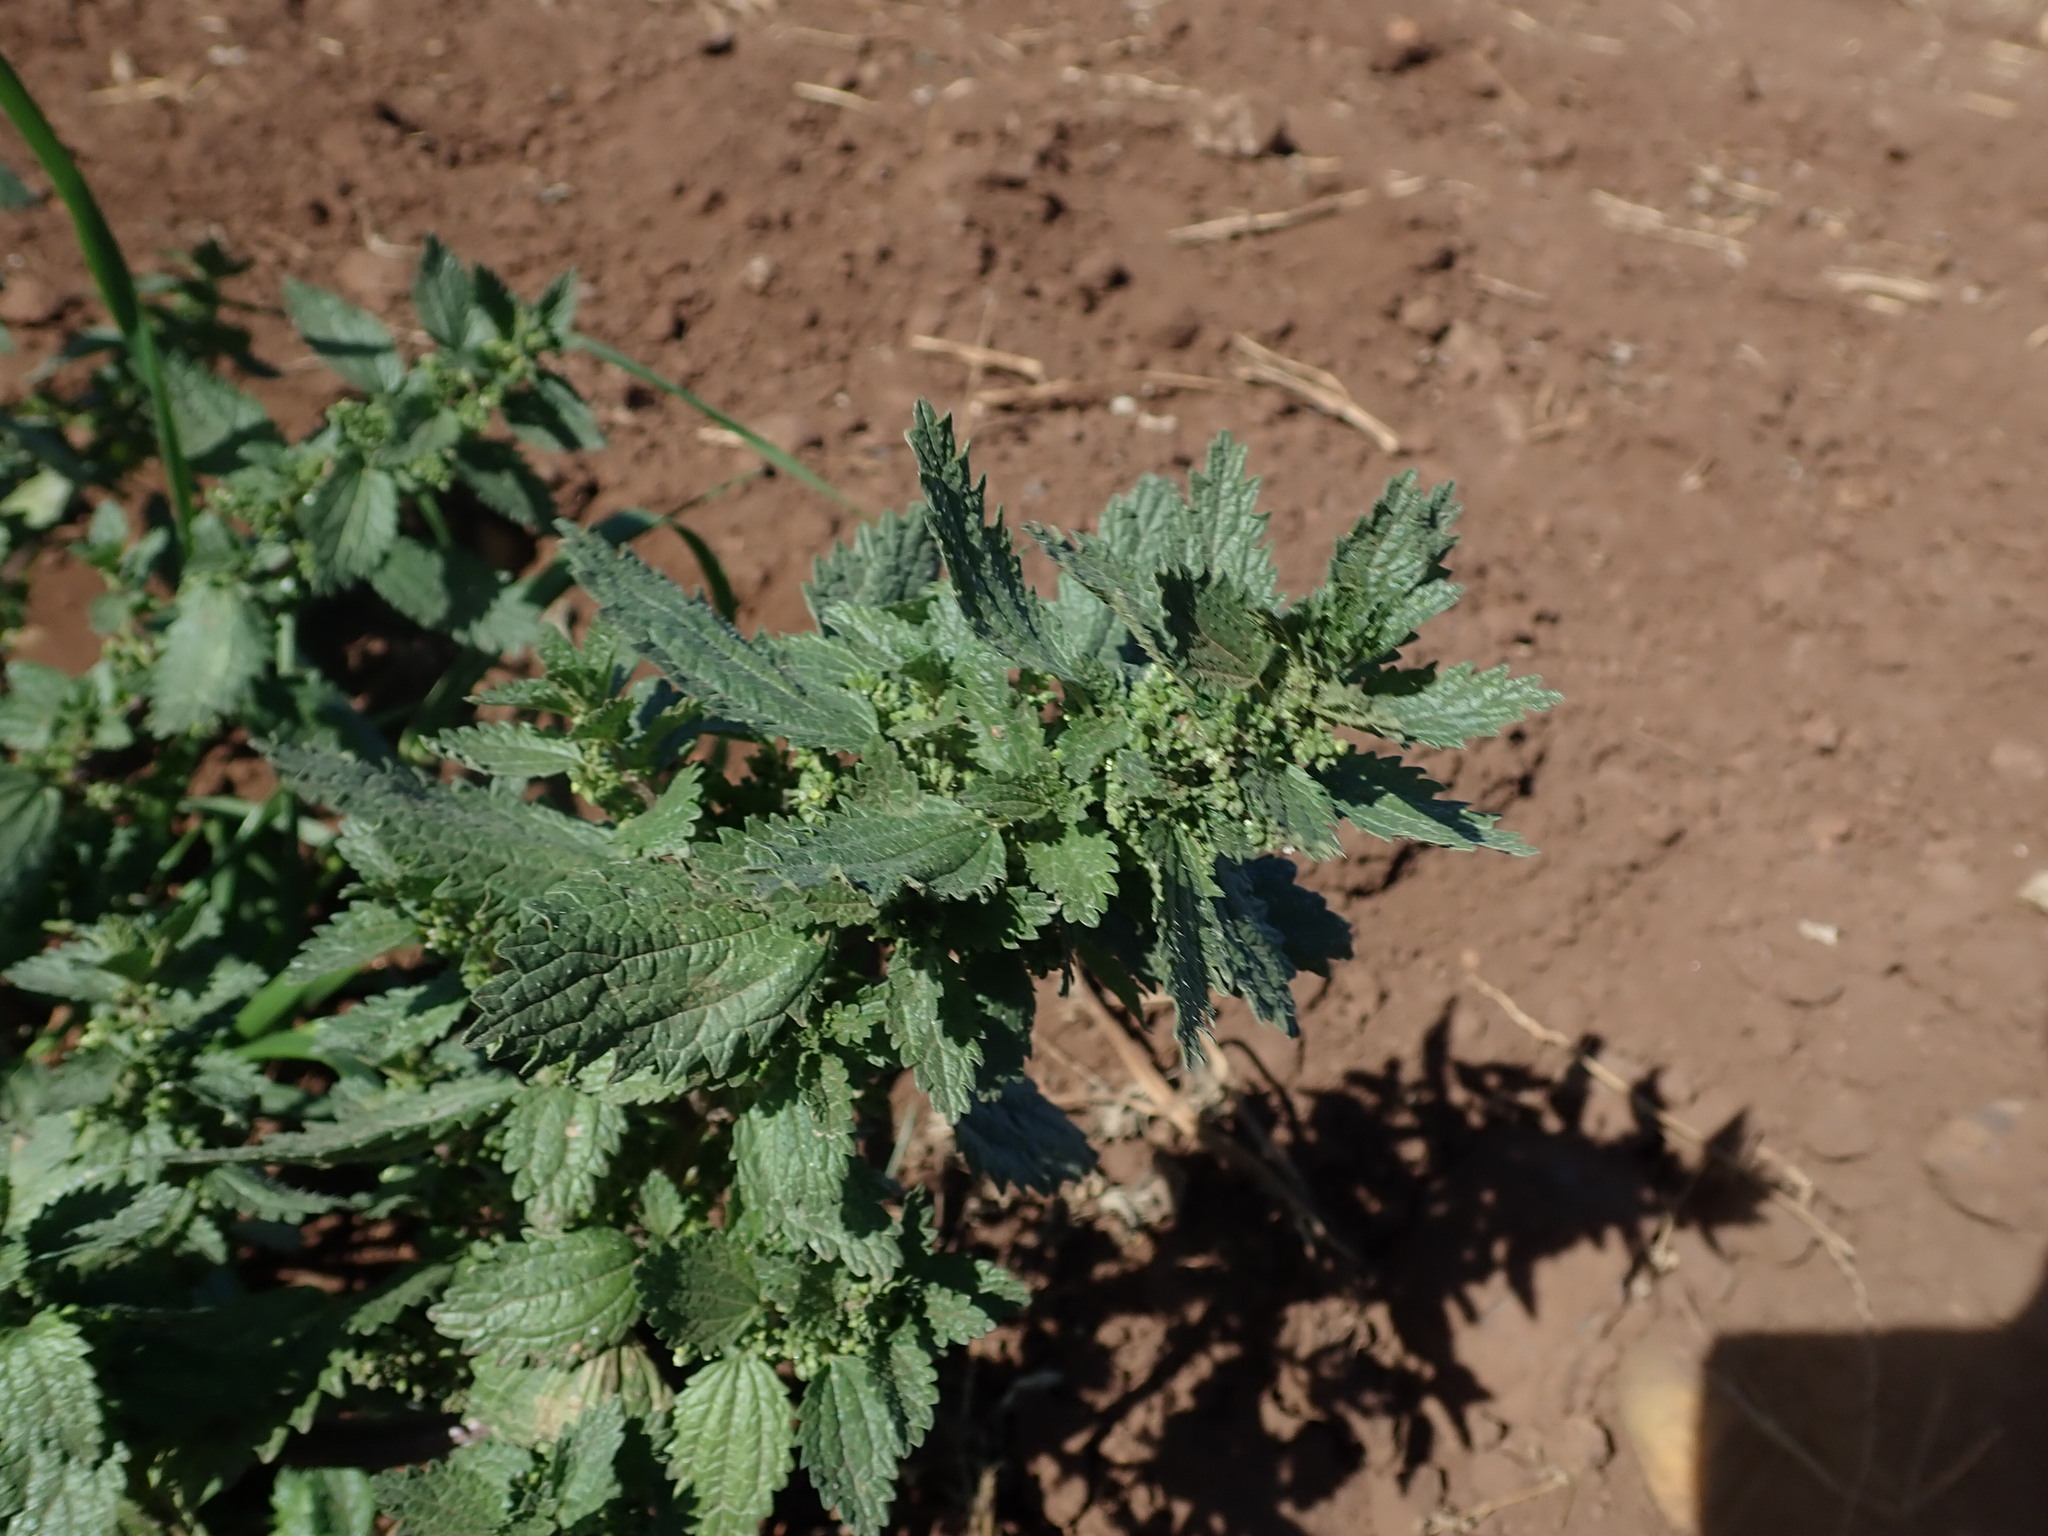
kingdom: Plantae
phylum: Tracheophyta
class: Magnoliopsida
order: Rosales
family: Urticaceae
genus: Urtica
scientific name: Urtica urens
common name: Dwarf nettle
